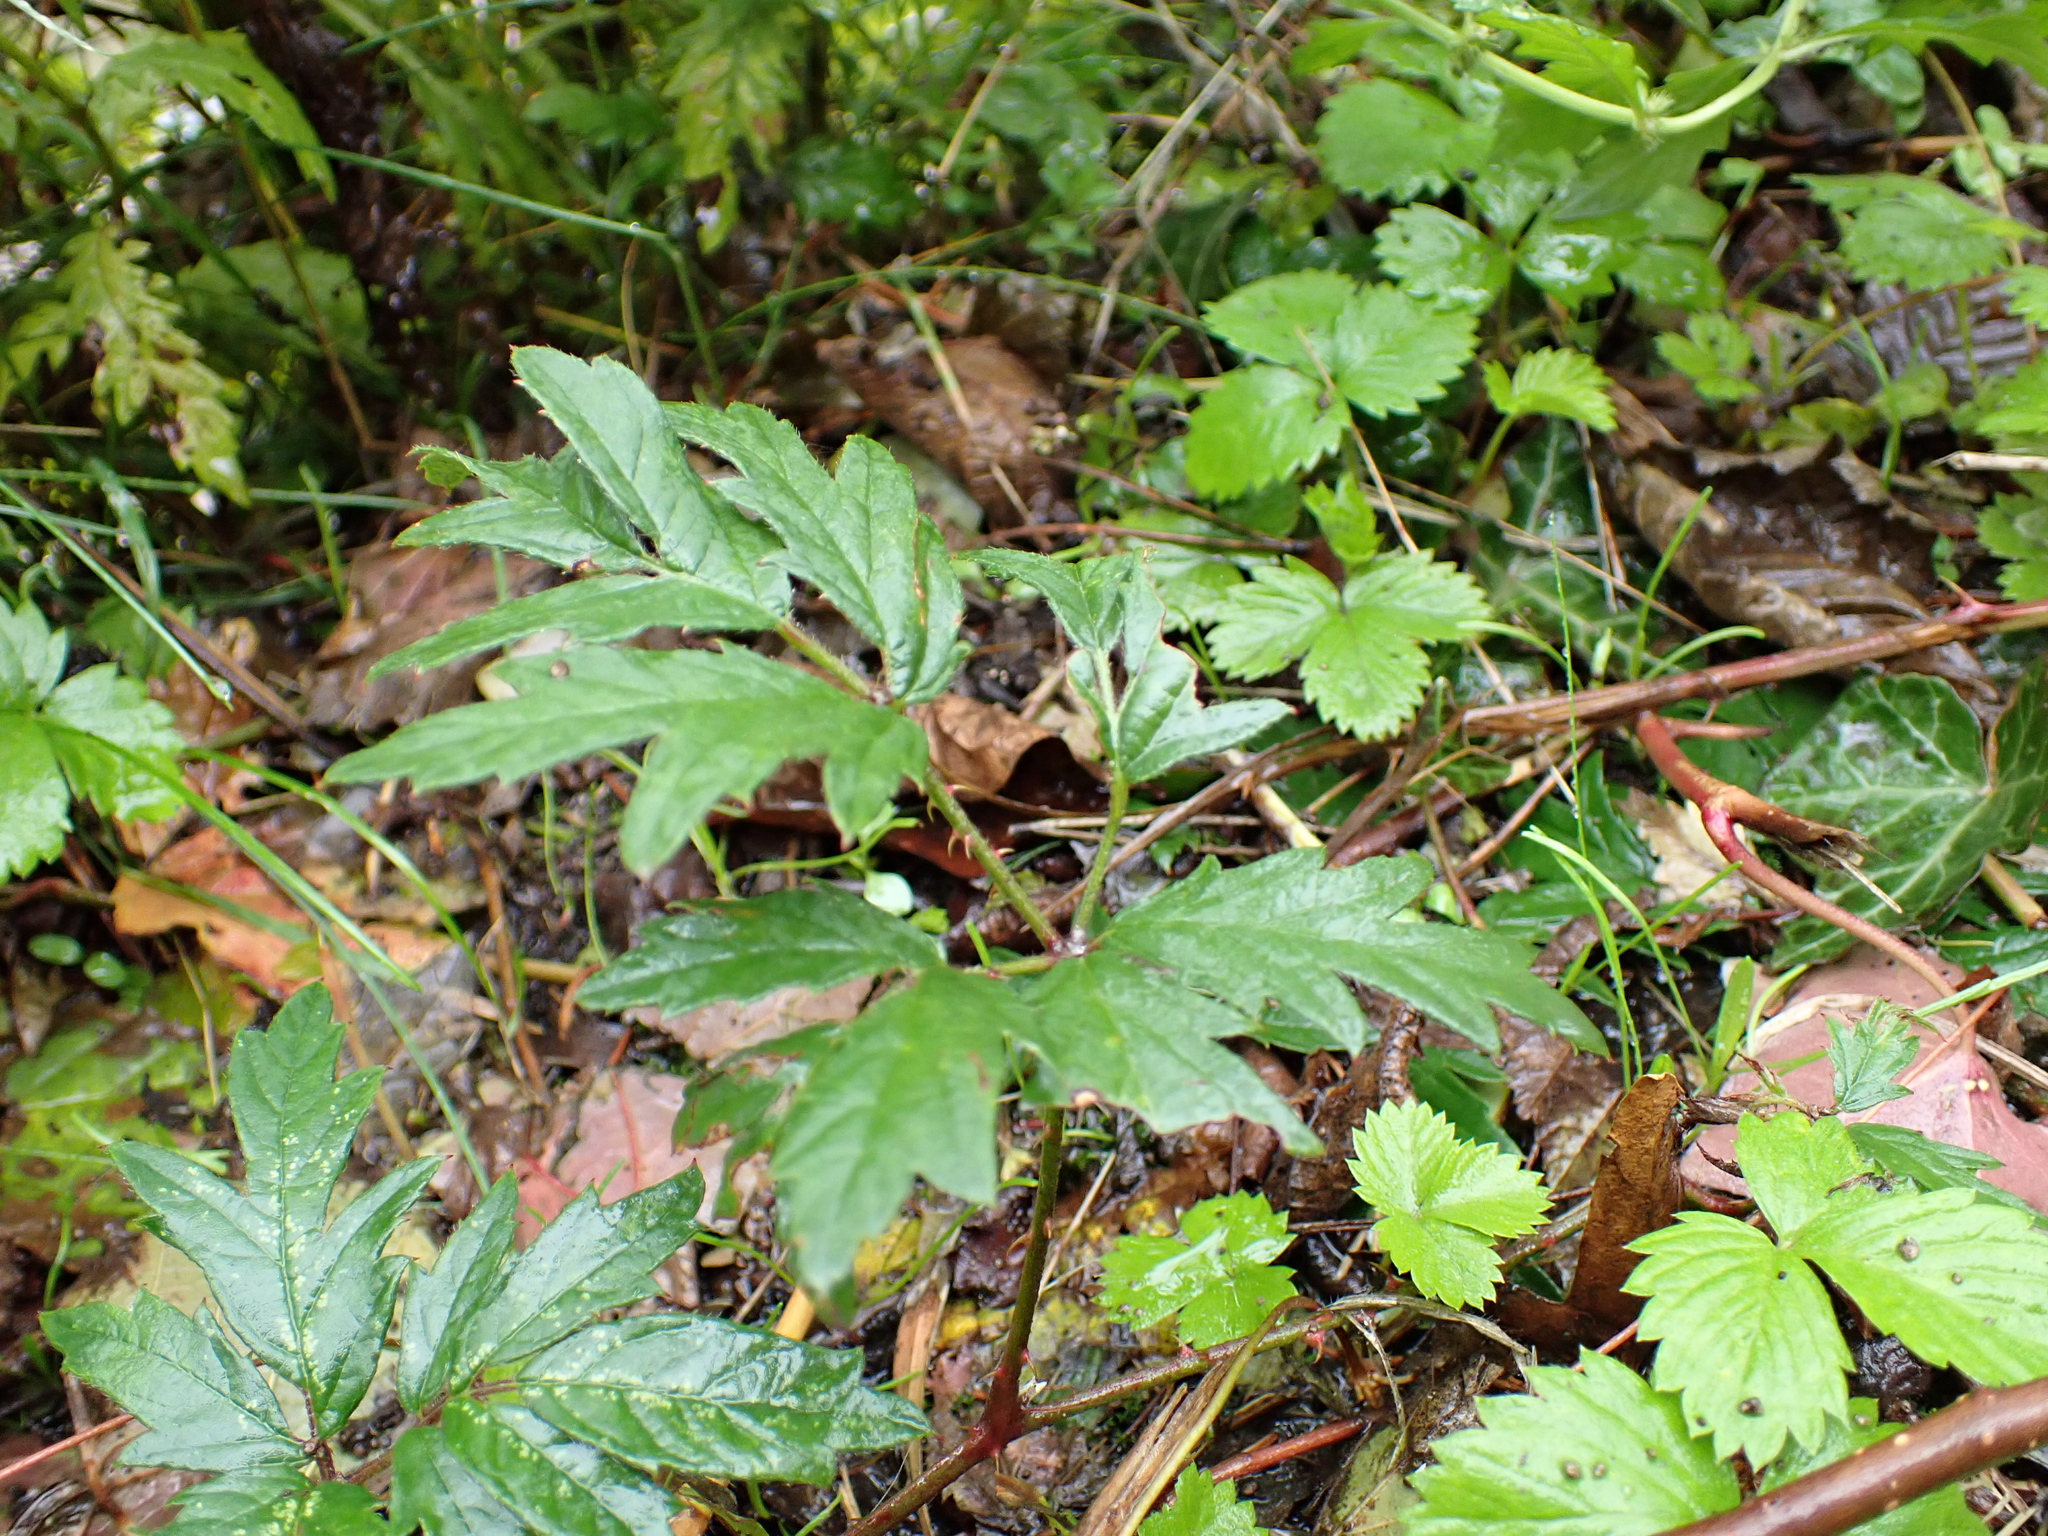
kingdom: Plantae
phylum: Tracheophyta
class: Magnoliopsida
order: Rosales
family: Rosaceae
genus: Rubus
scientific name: Rubus laciniatus
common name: Evergreen blackberry
